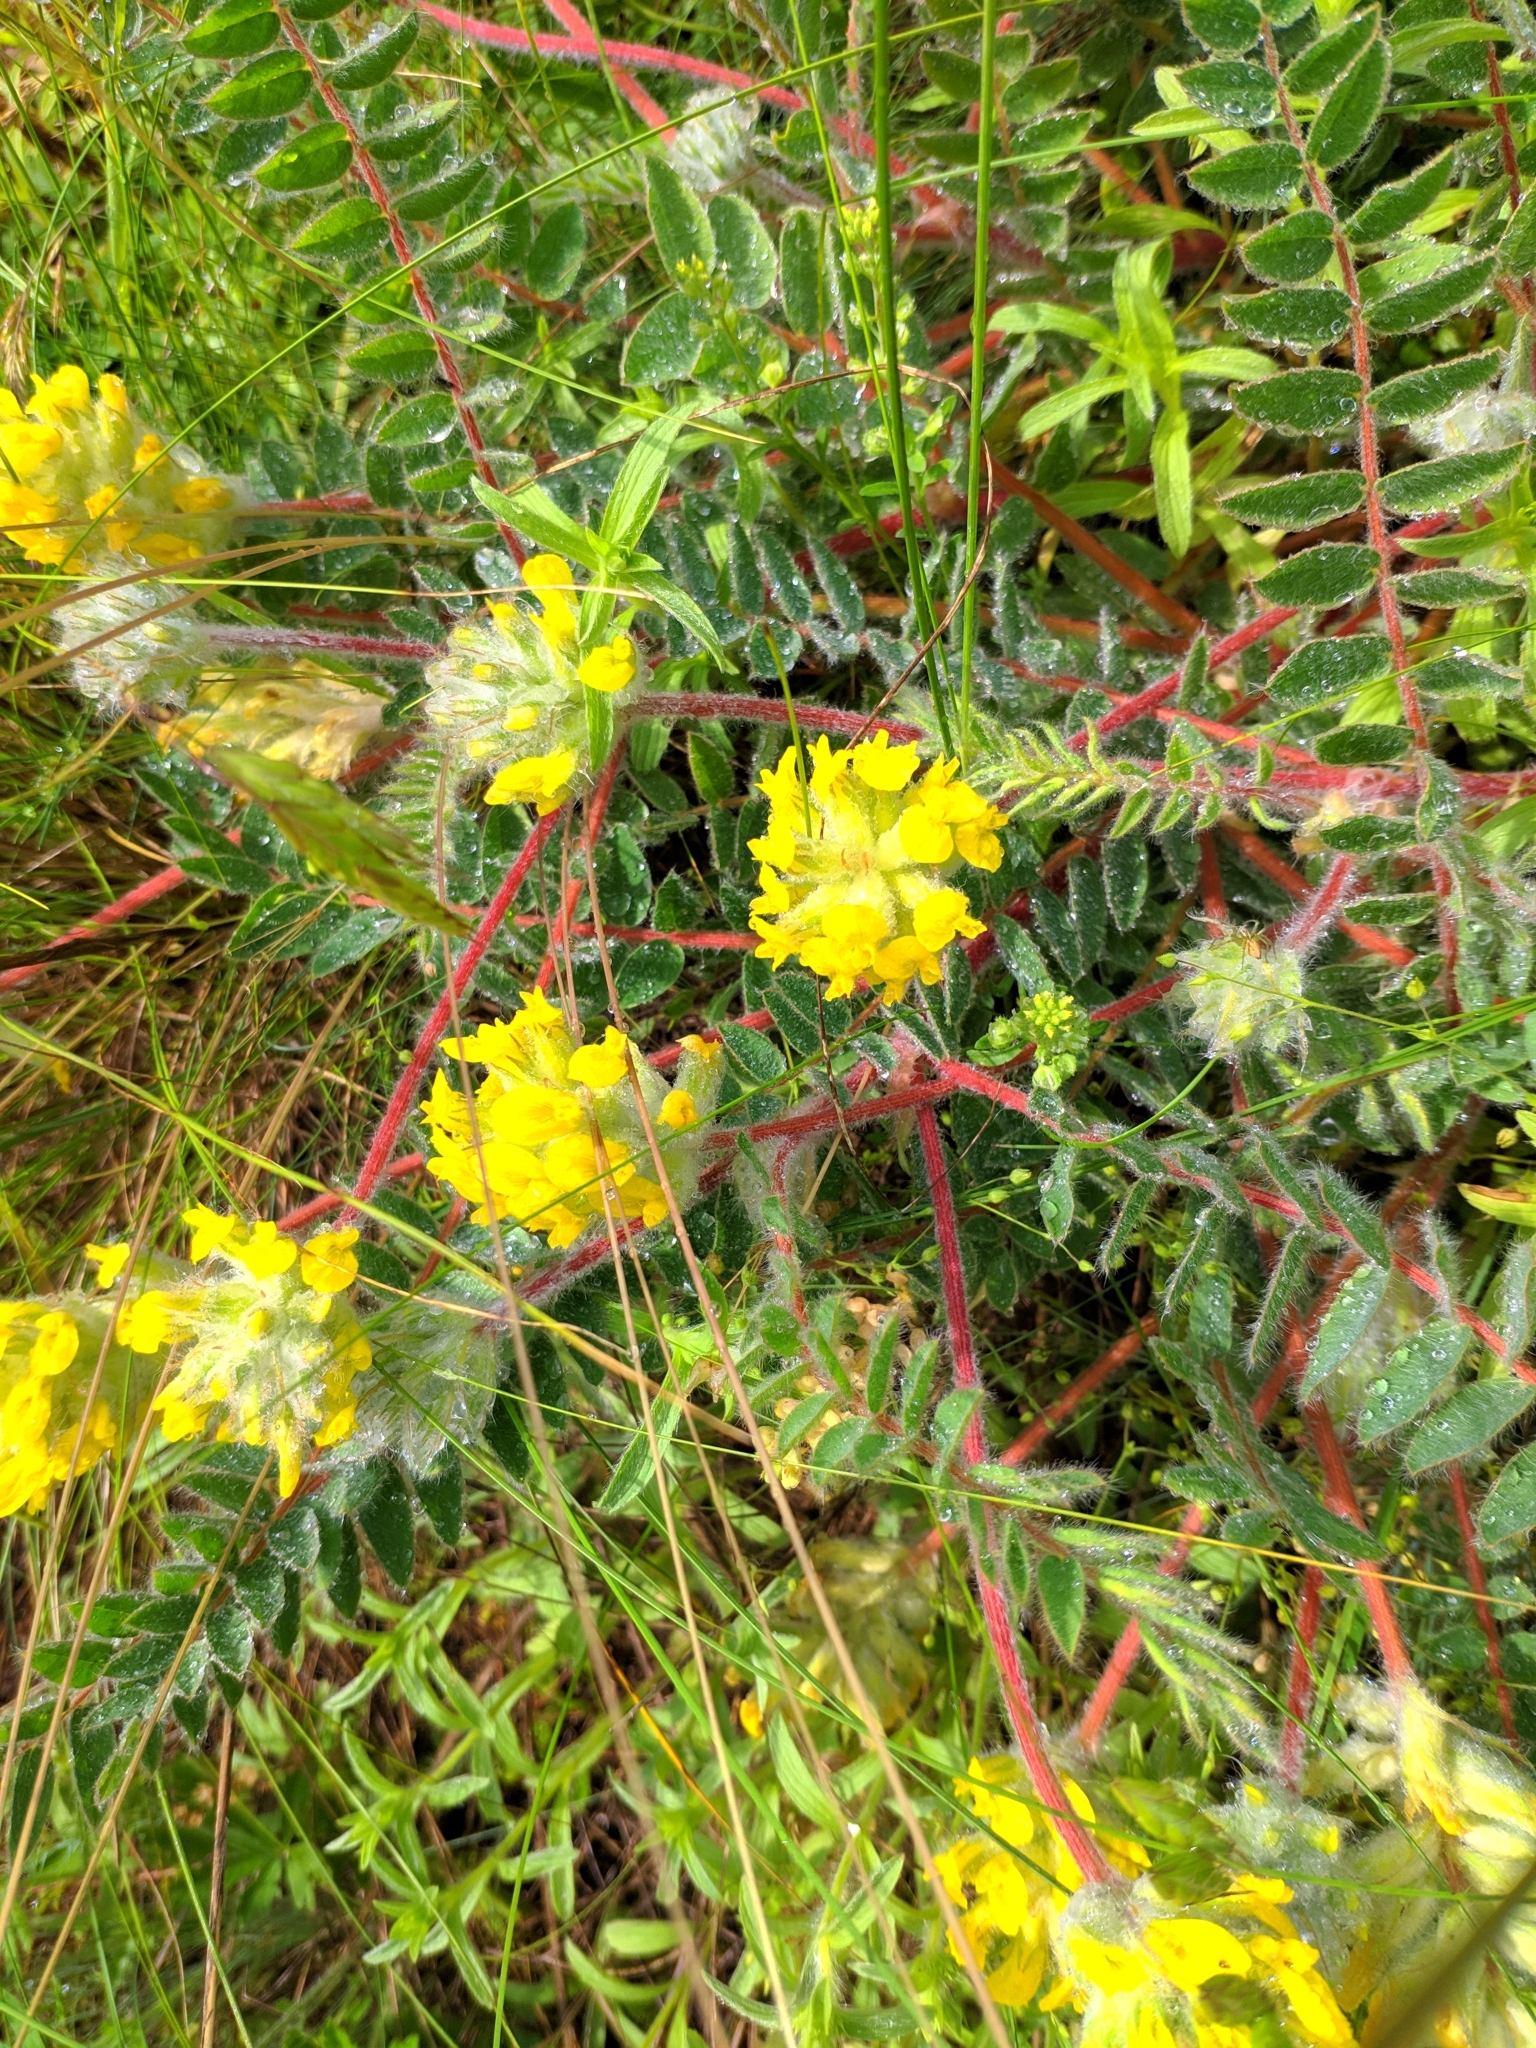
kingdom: Plantae
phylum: Tracheophyta
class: Magnoliopsida
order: Fabales
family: Fabaceae
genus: Astragalus
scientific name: Astragalus dasyanthus
